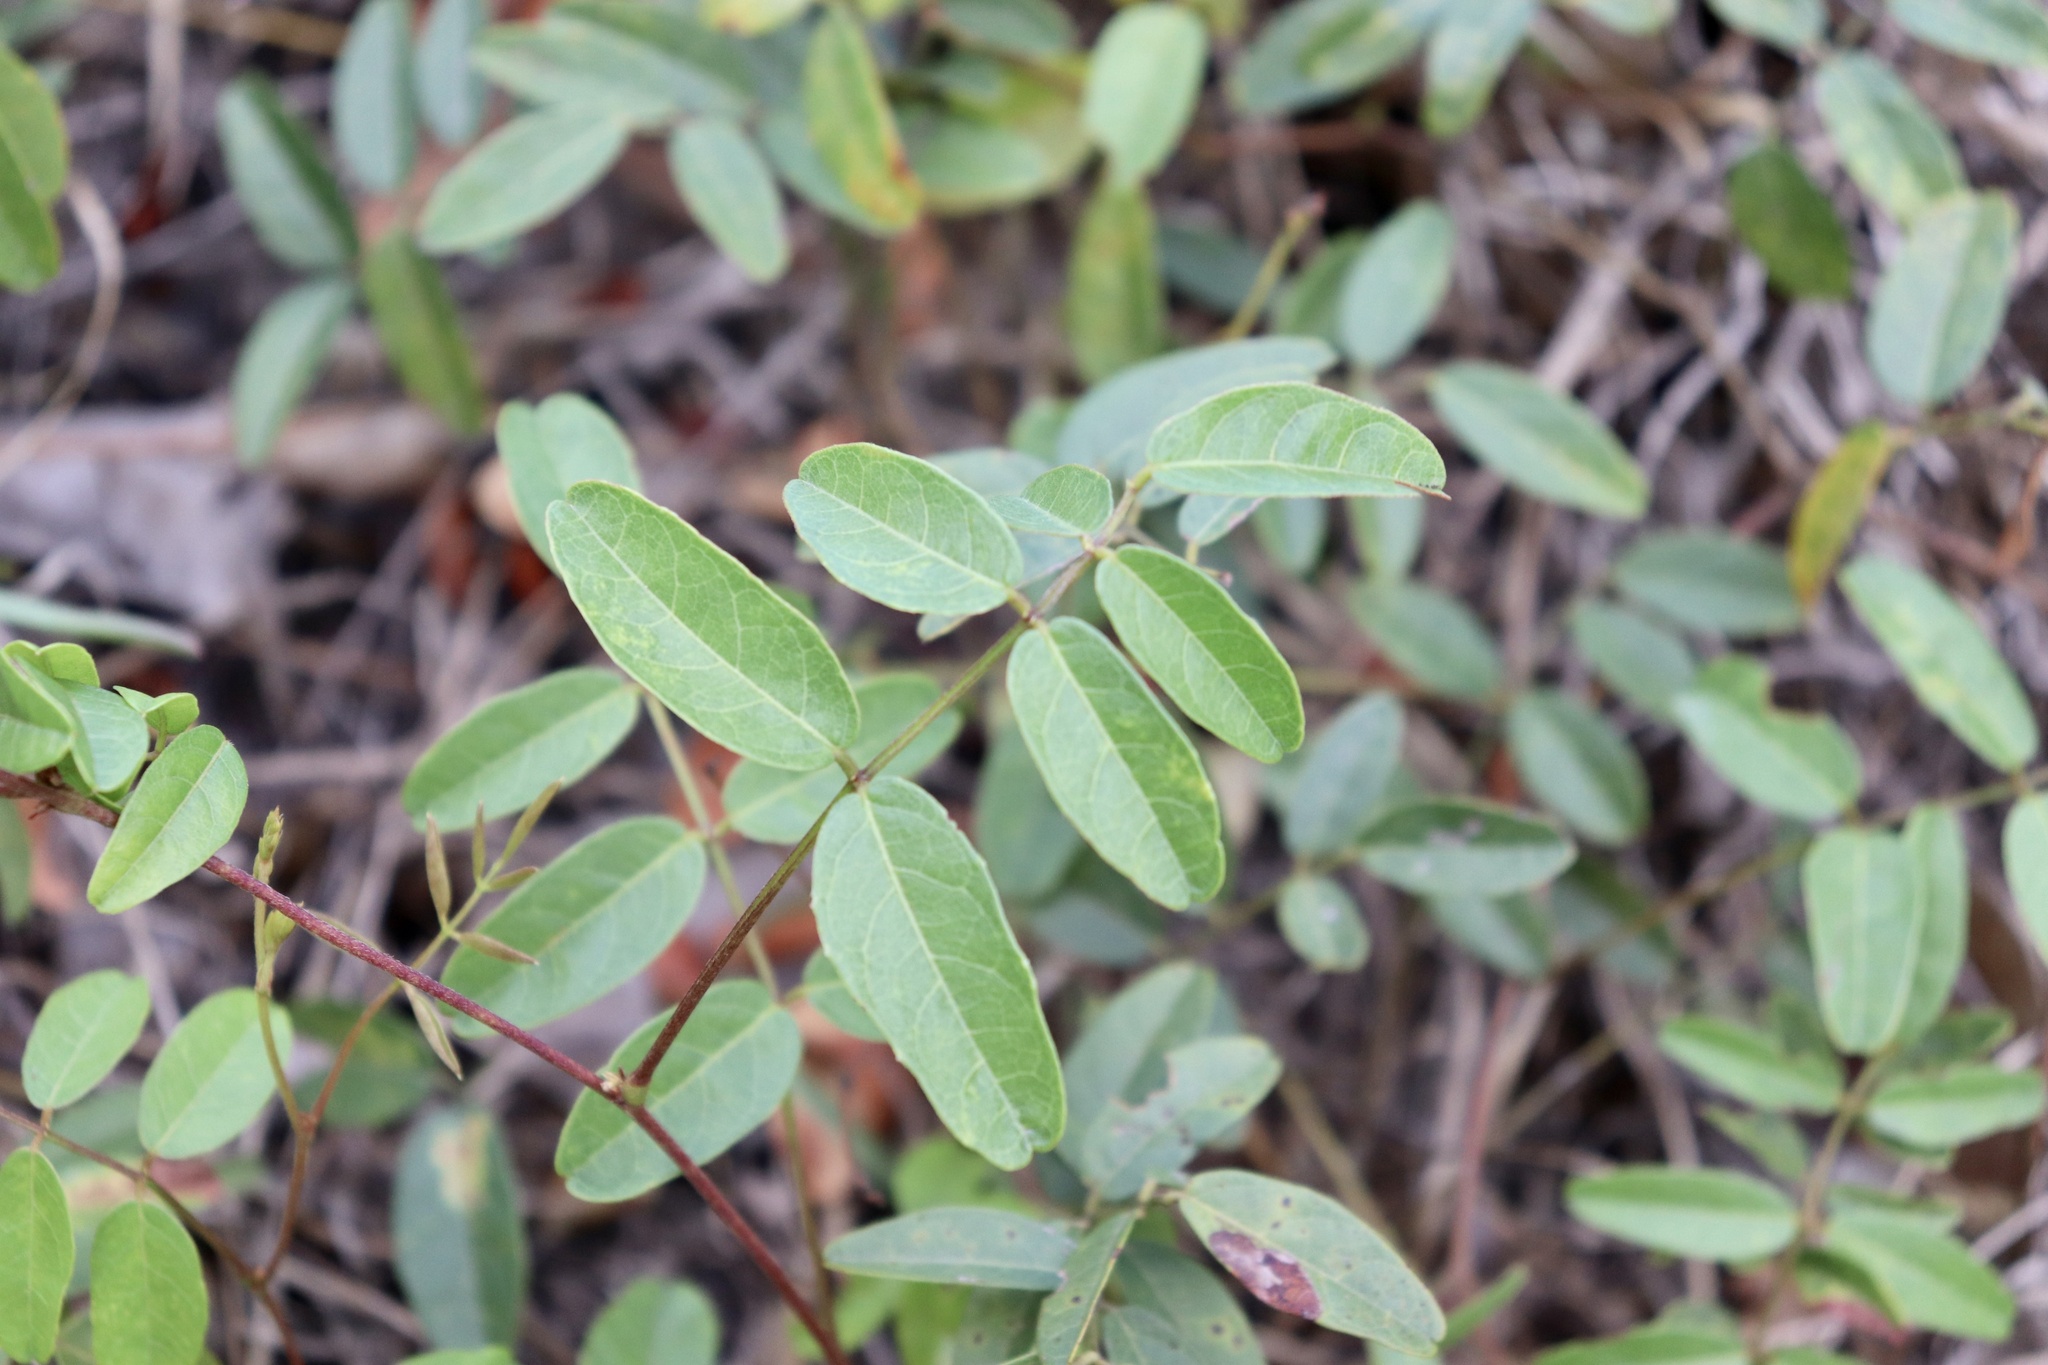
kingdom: Plantae
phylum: Tracheophyta
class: Magnoliopsida
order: Fabales
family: Fabaceae
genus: Galactia
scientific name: Galactia elliottii
